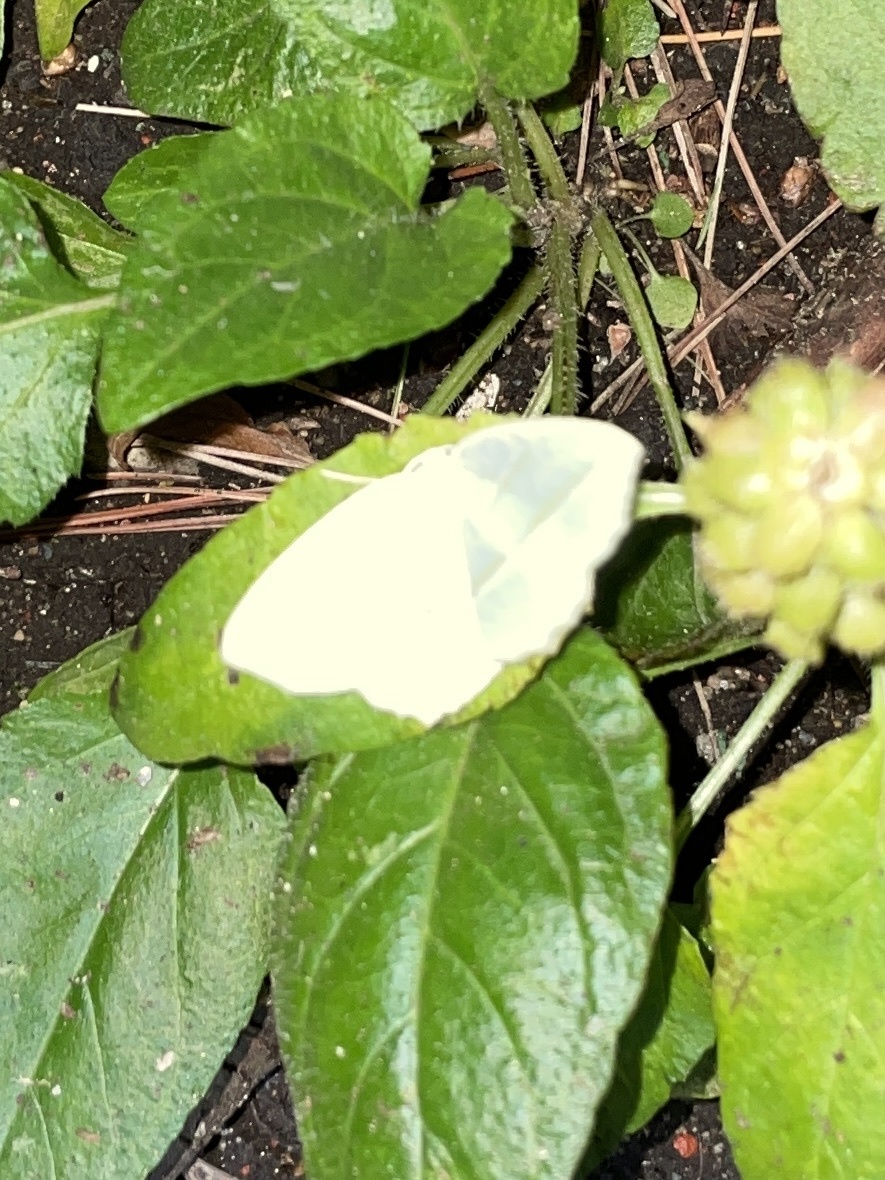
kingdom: Animalia
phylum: Arthropoda
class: Insecta
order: Lepidoptera
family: Geometridae
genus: Campaea
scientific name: Campaea perlata
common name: Fringed looper
